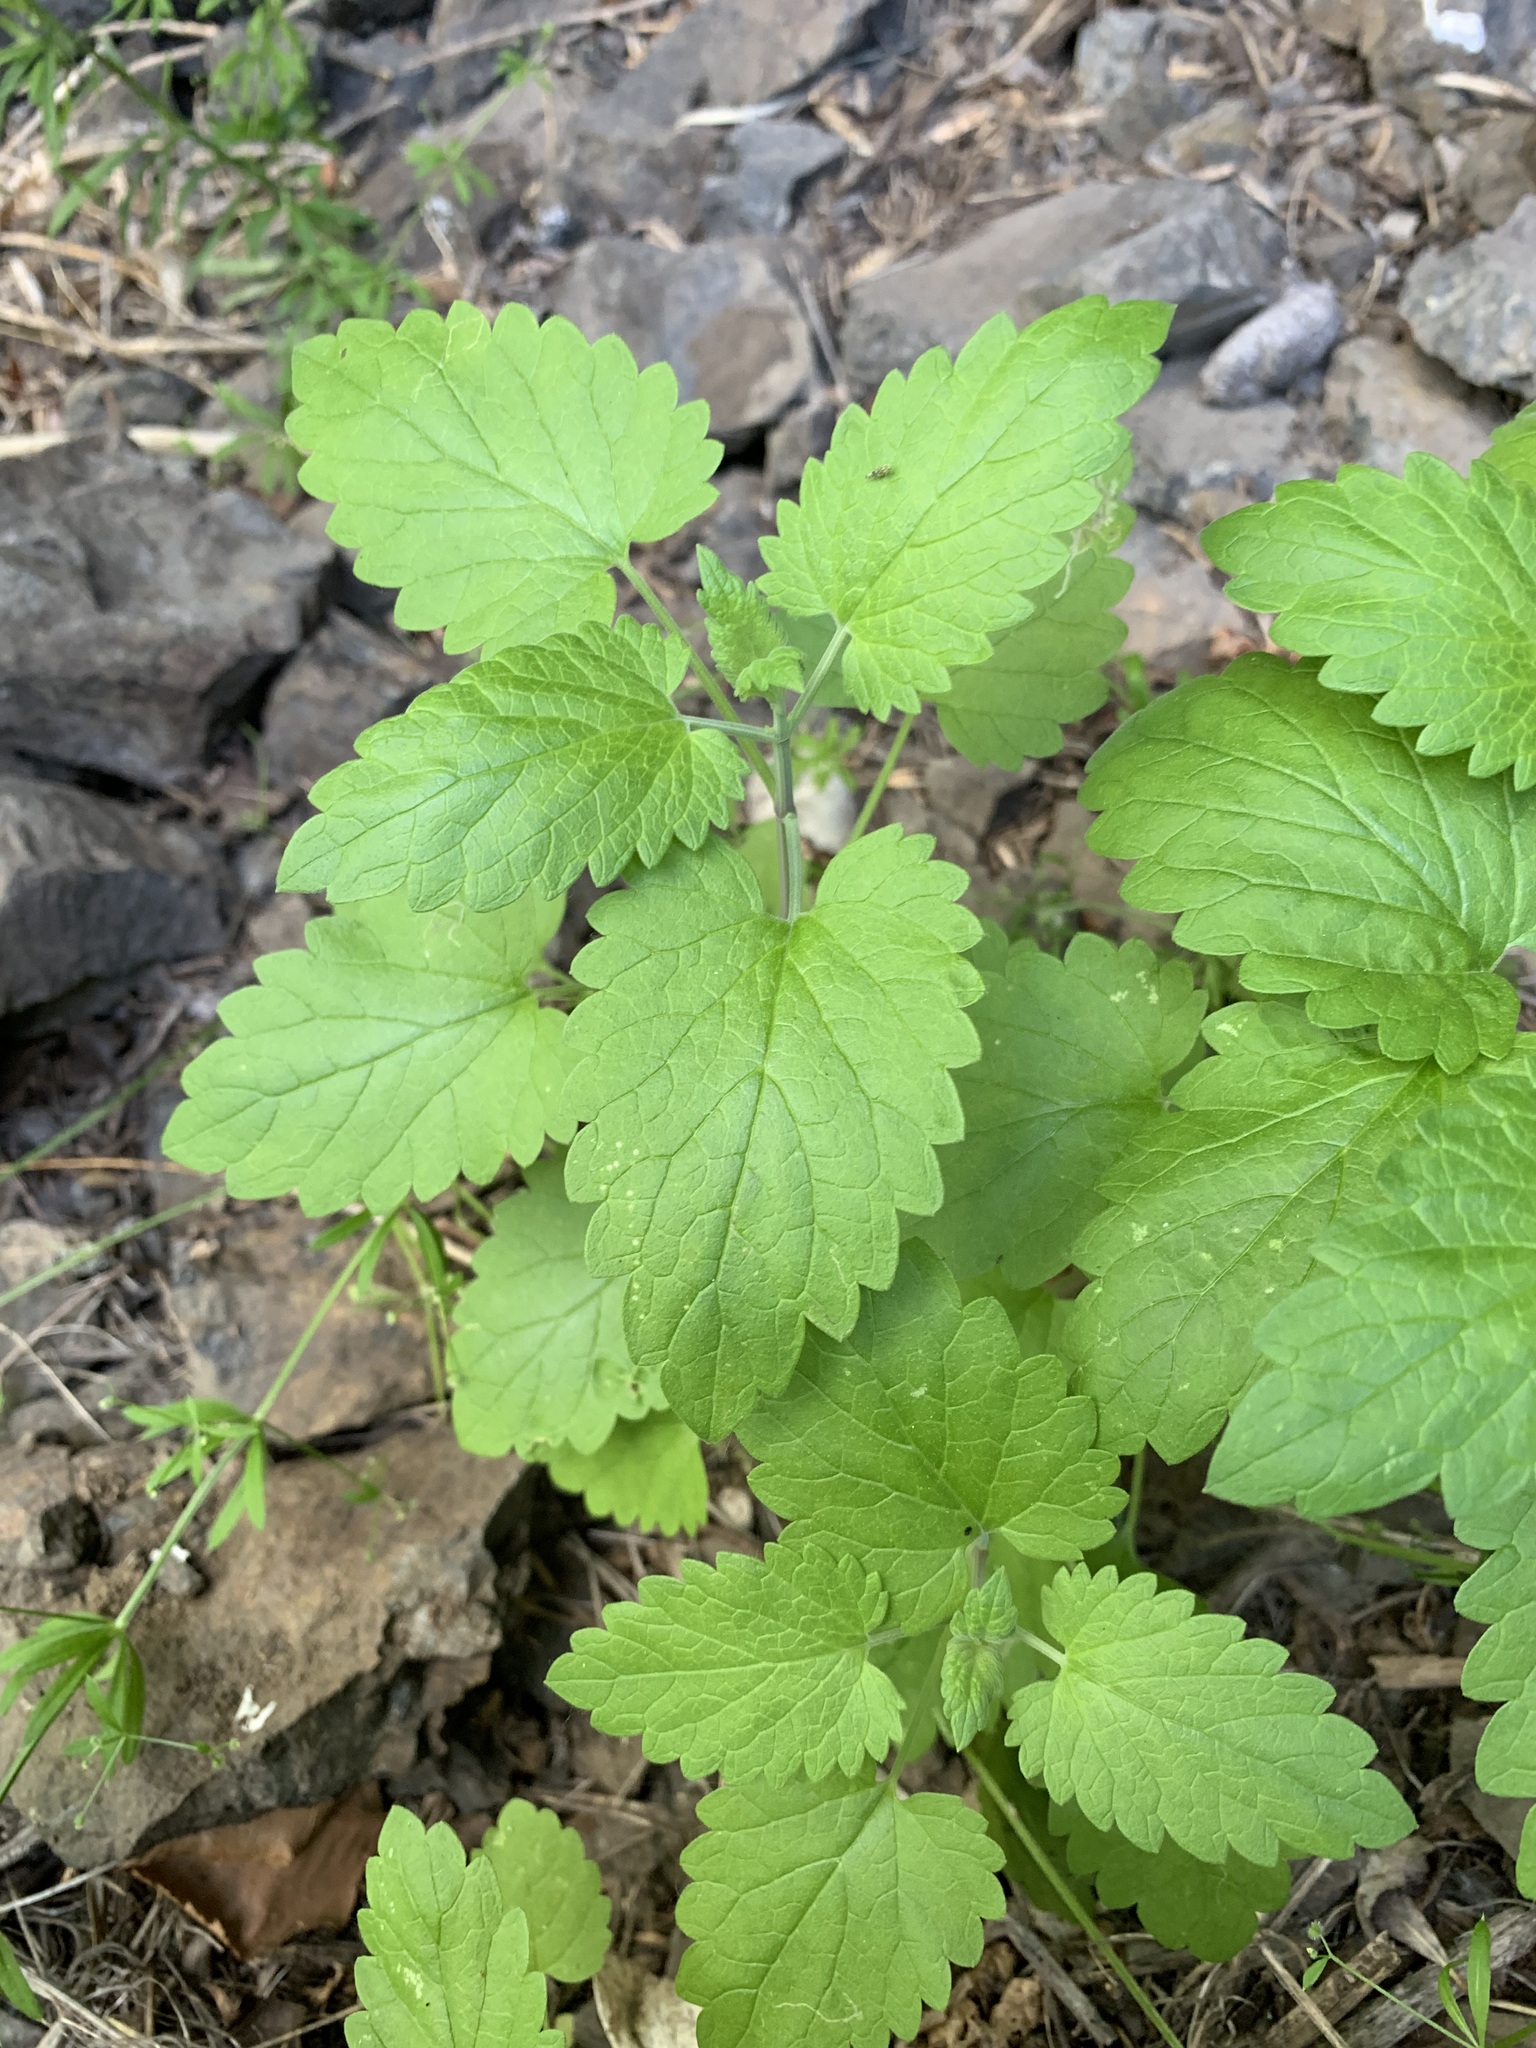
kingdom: Plantae
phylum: Tracheophyta
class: Magnoliopsida
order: Lamiales
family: Lamiaceae
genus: Nepeta
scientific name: Nepeta cataria
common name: Catnip
